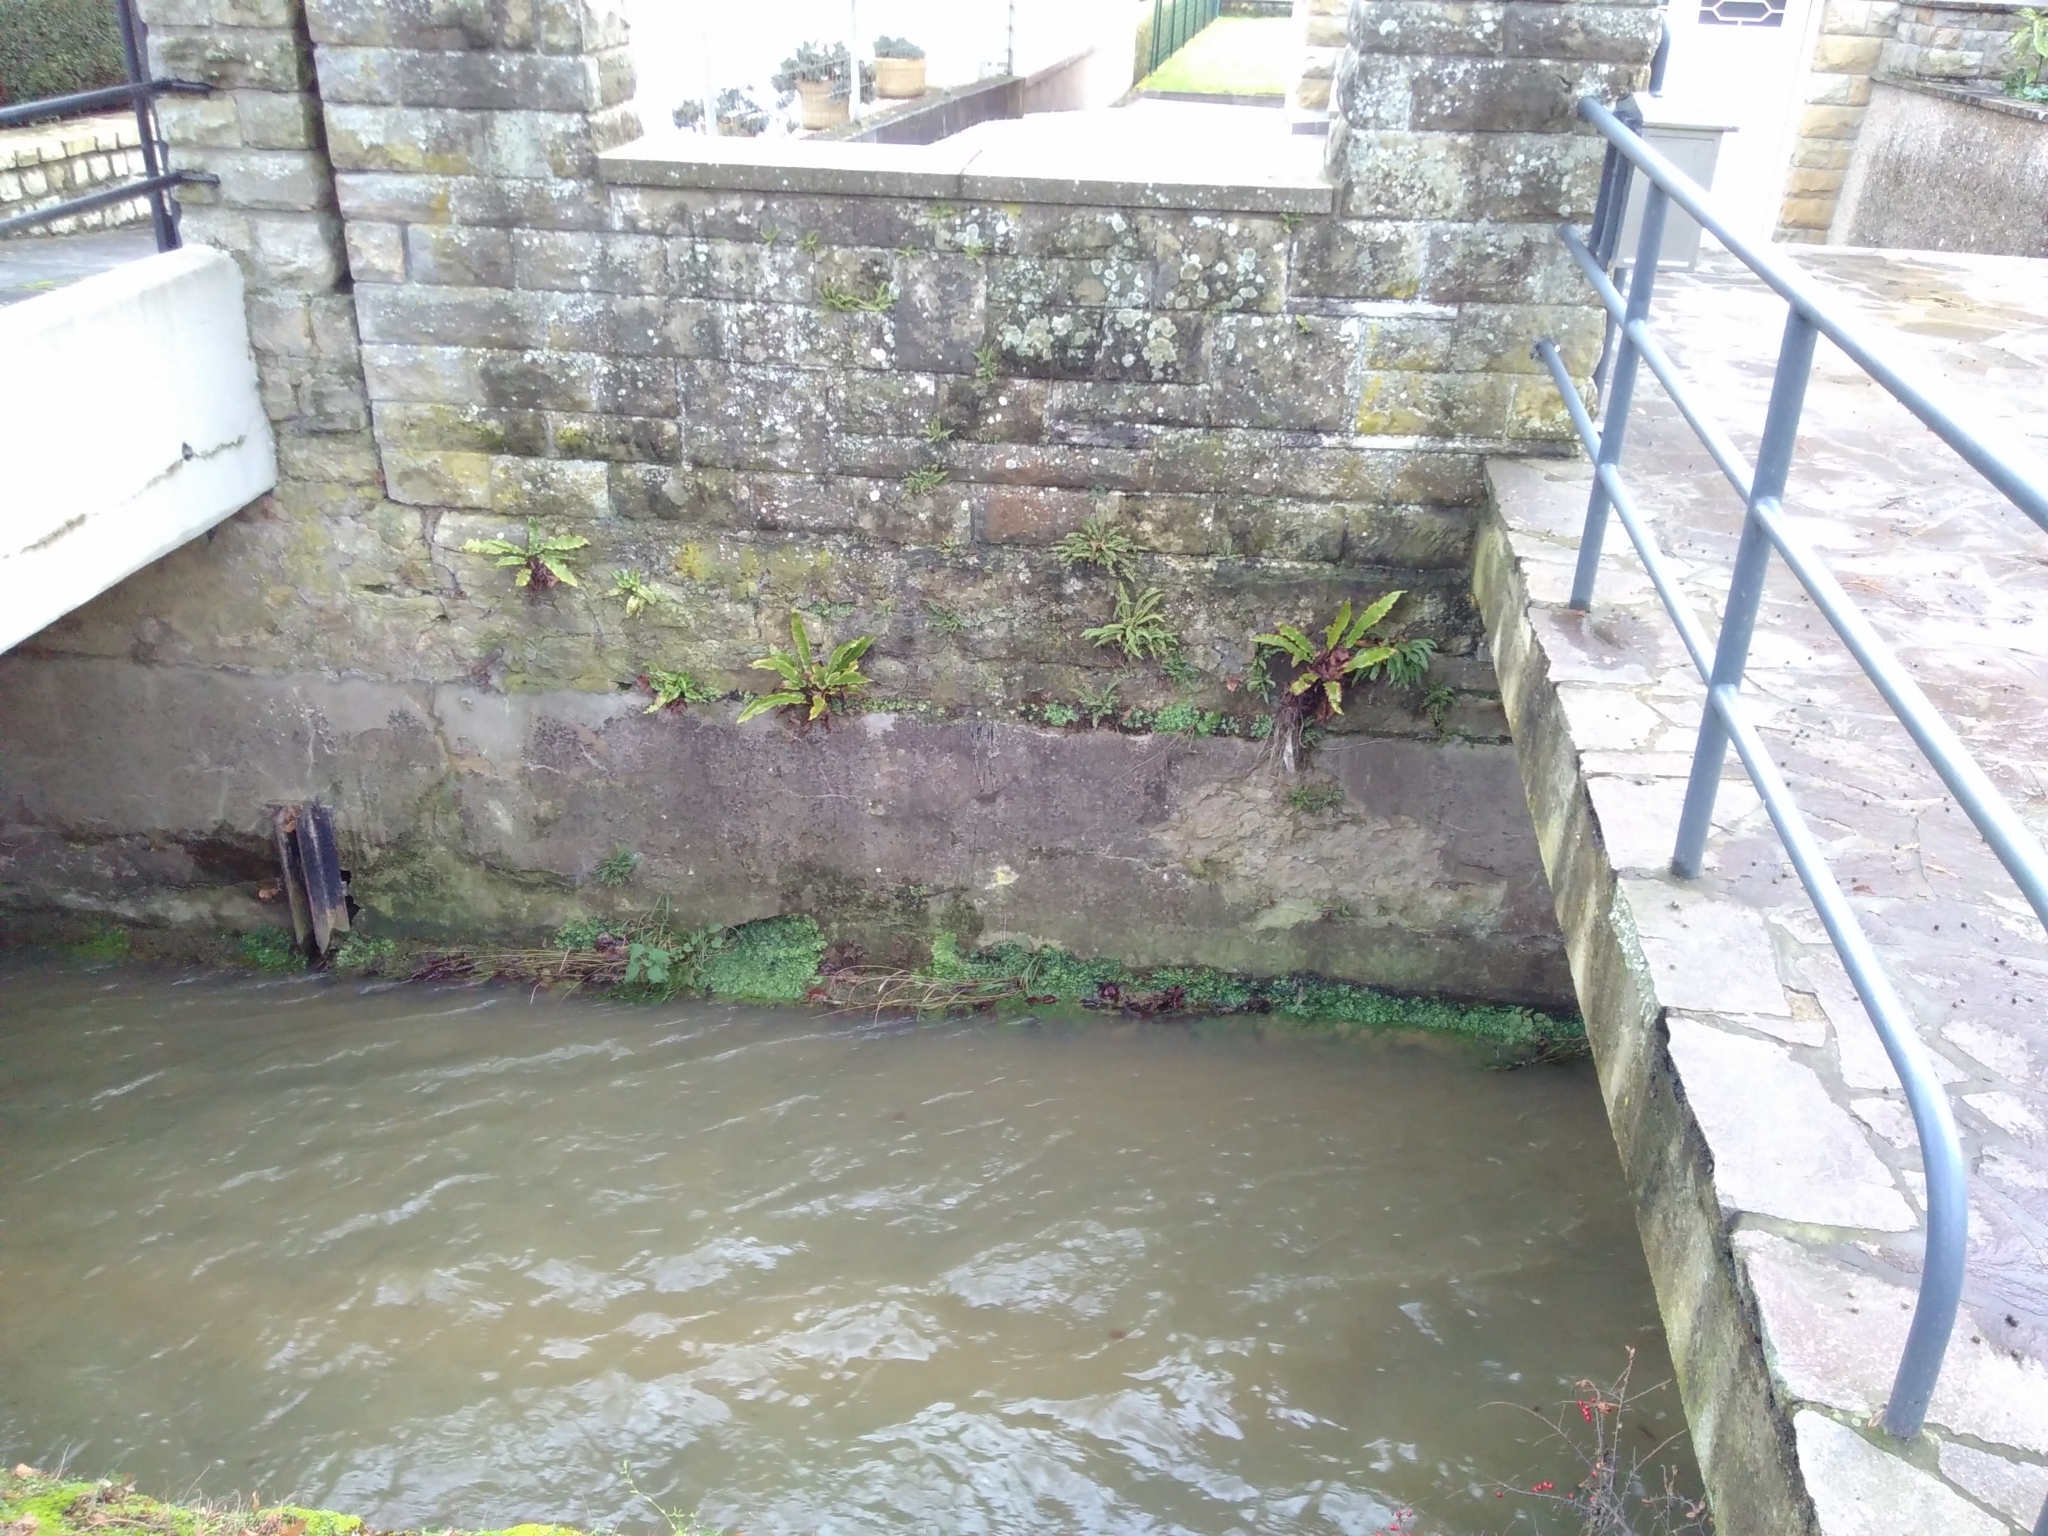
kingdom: Plantae
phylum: Tracheophyta
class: Polypodiopsida
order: Polypodiales
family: Aspleniaceae
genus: Asplenium
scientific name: Asplenium scolopendrium
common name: Hart's-tongue fern
